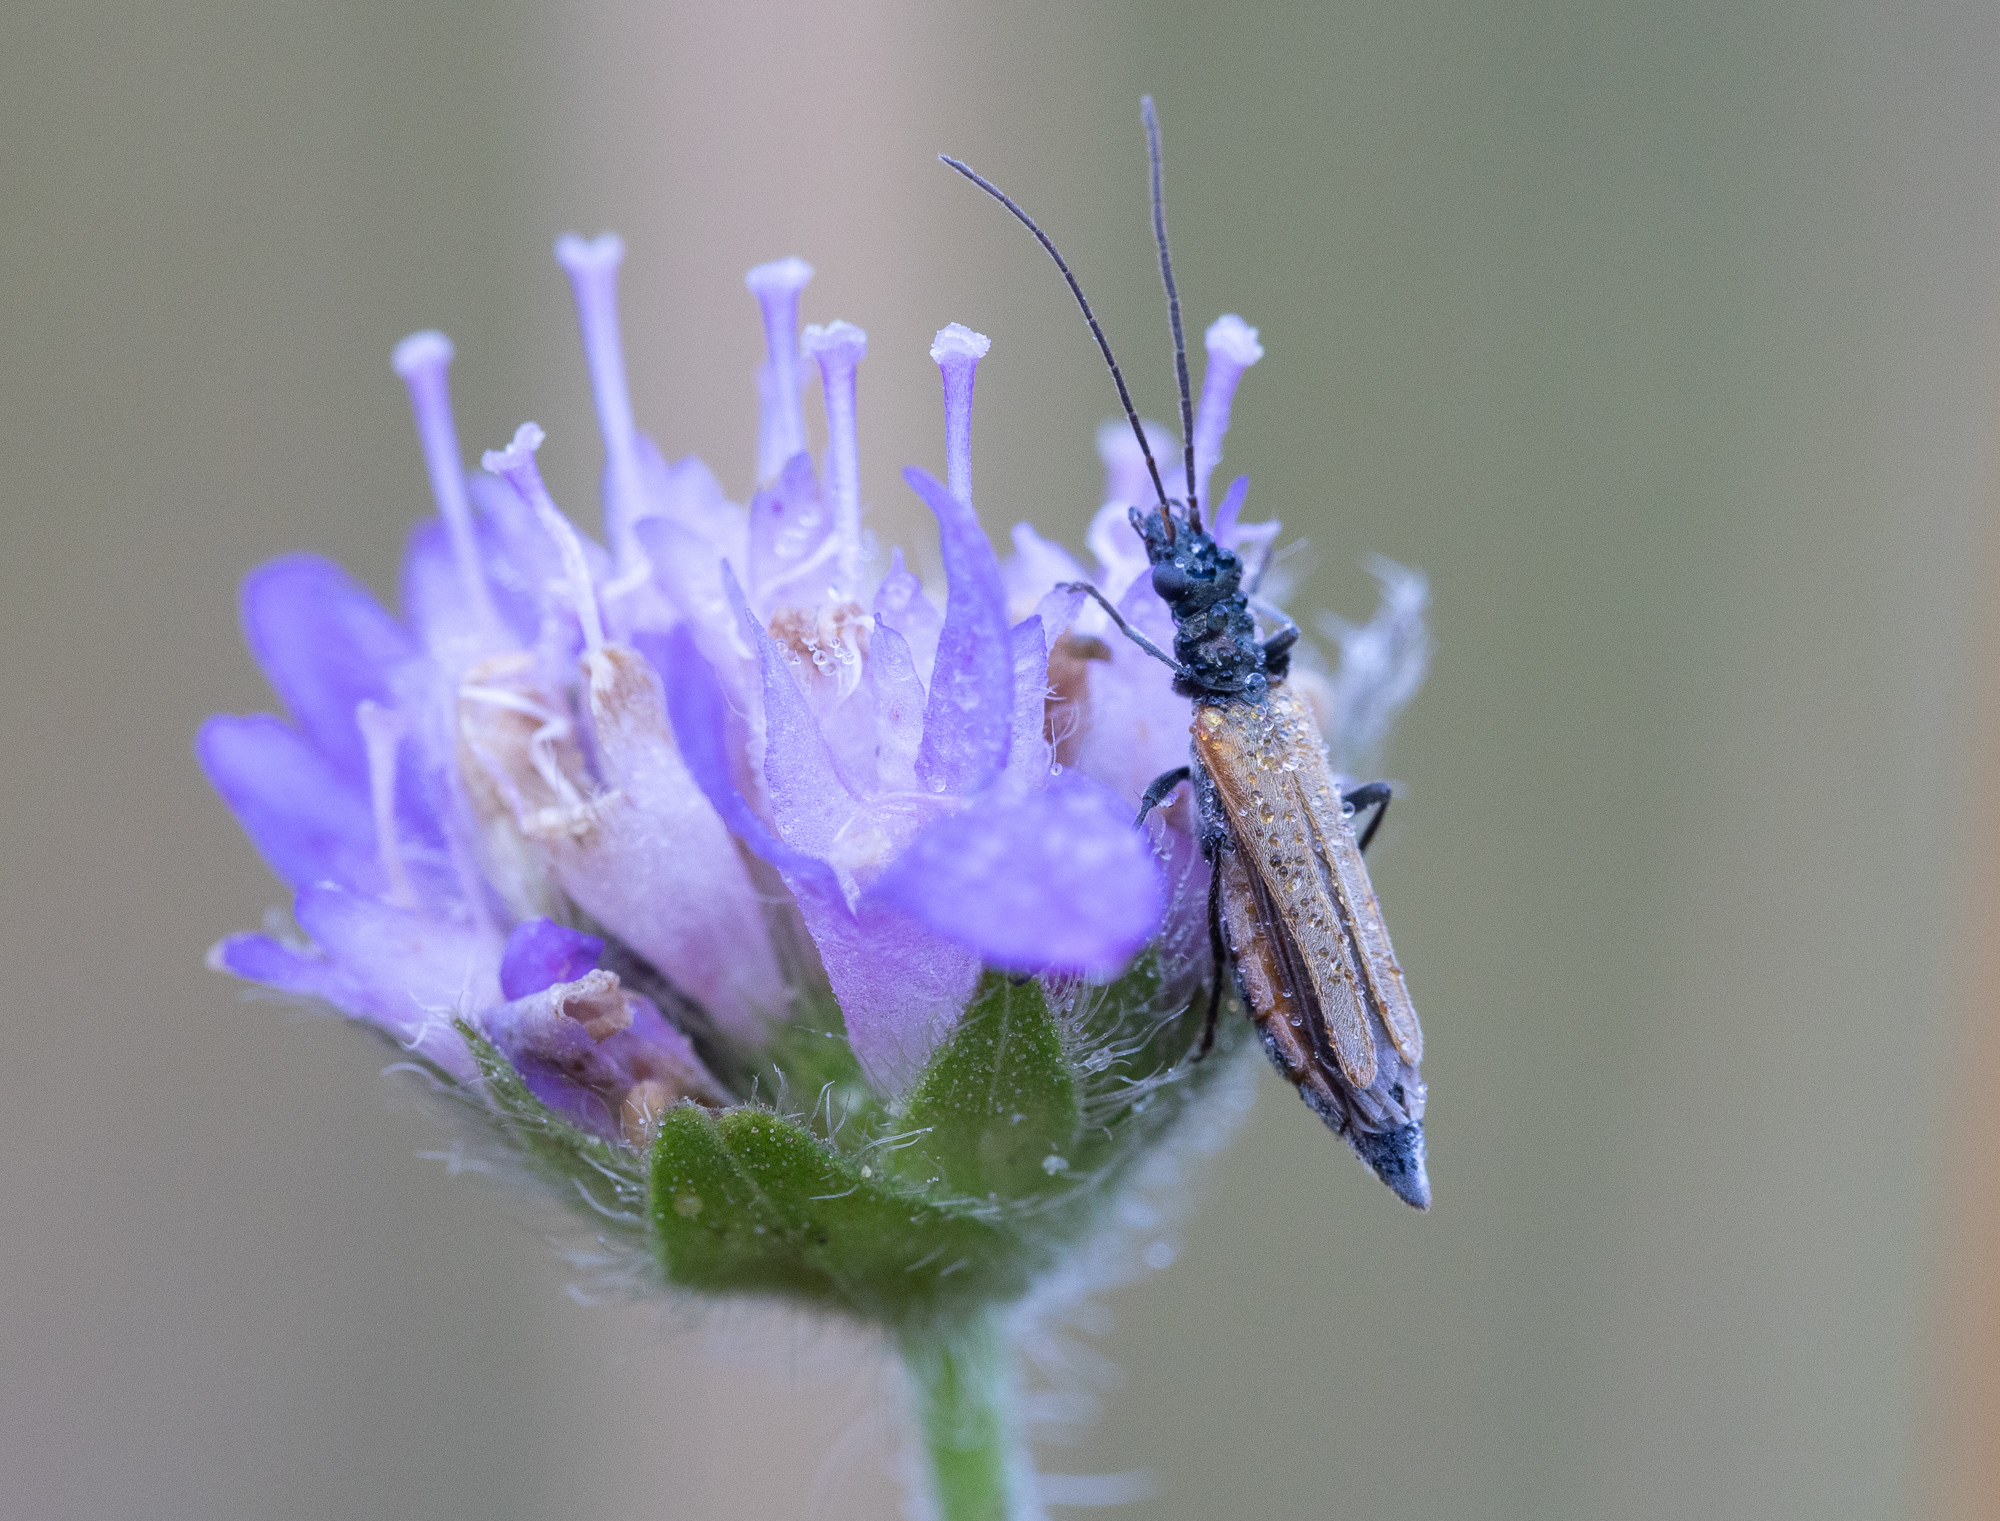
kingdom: Animalia
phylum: Arthropoda
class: Insecta
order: Coleoptera
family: Oedemeridae
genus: Oedemera
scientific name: Oedemera femorata
